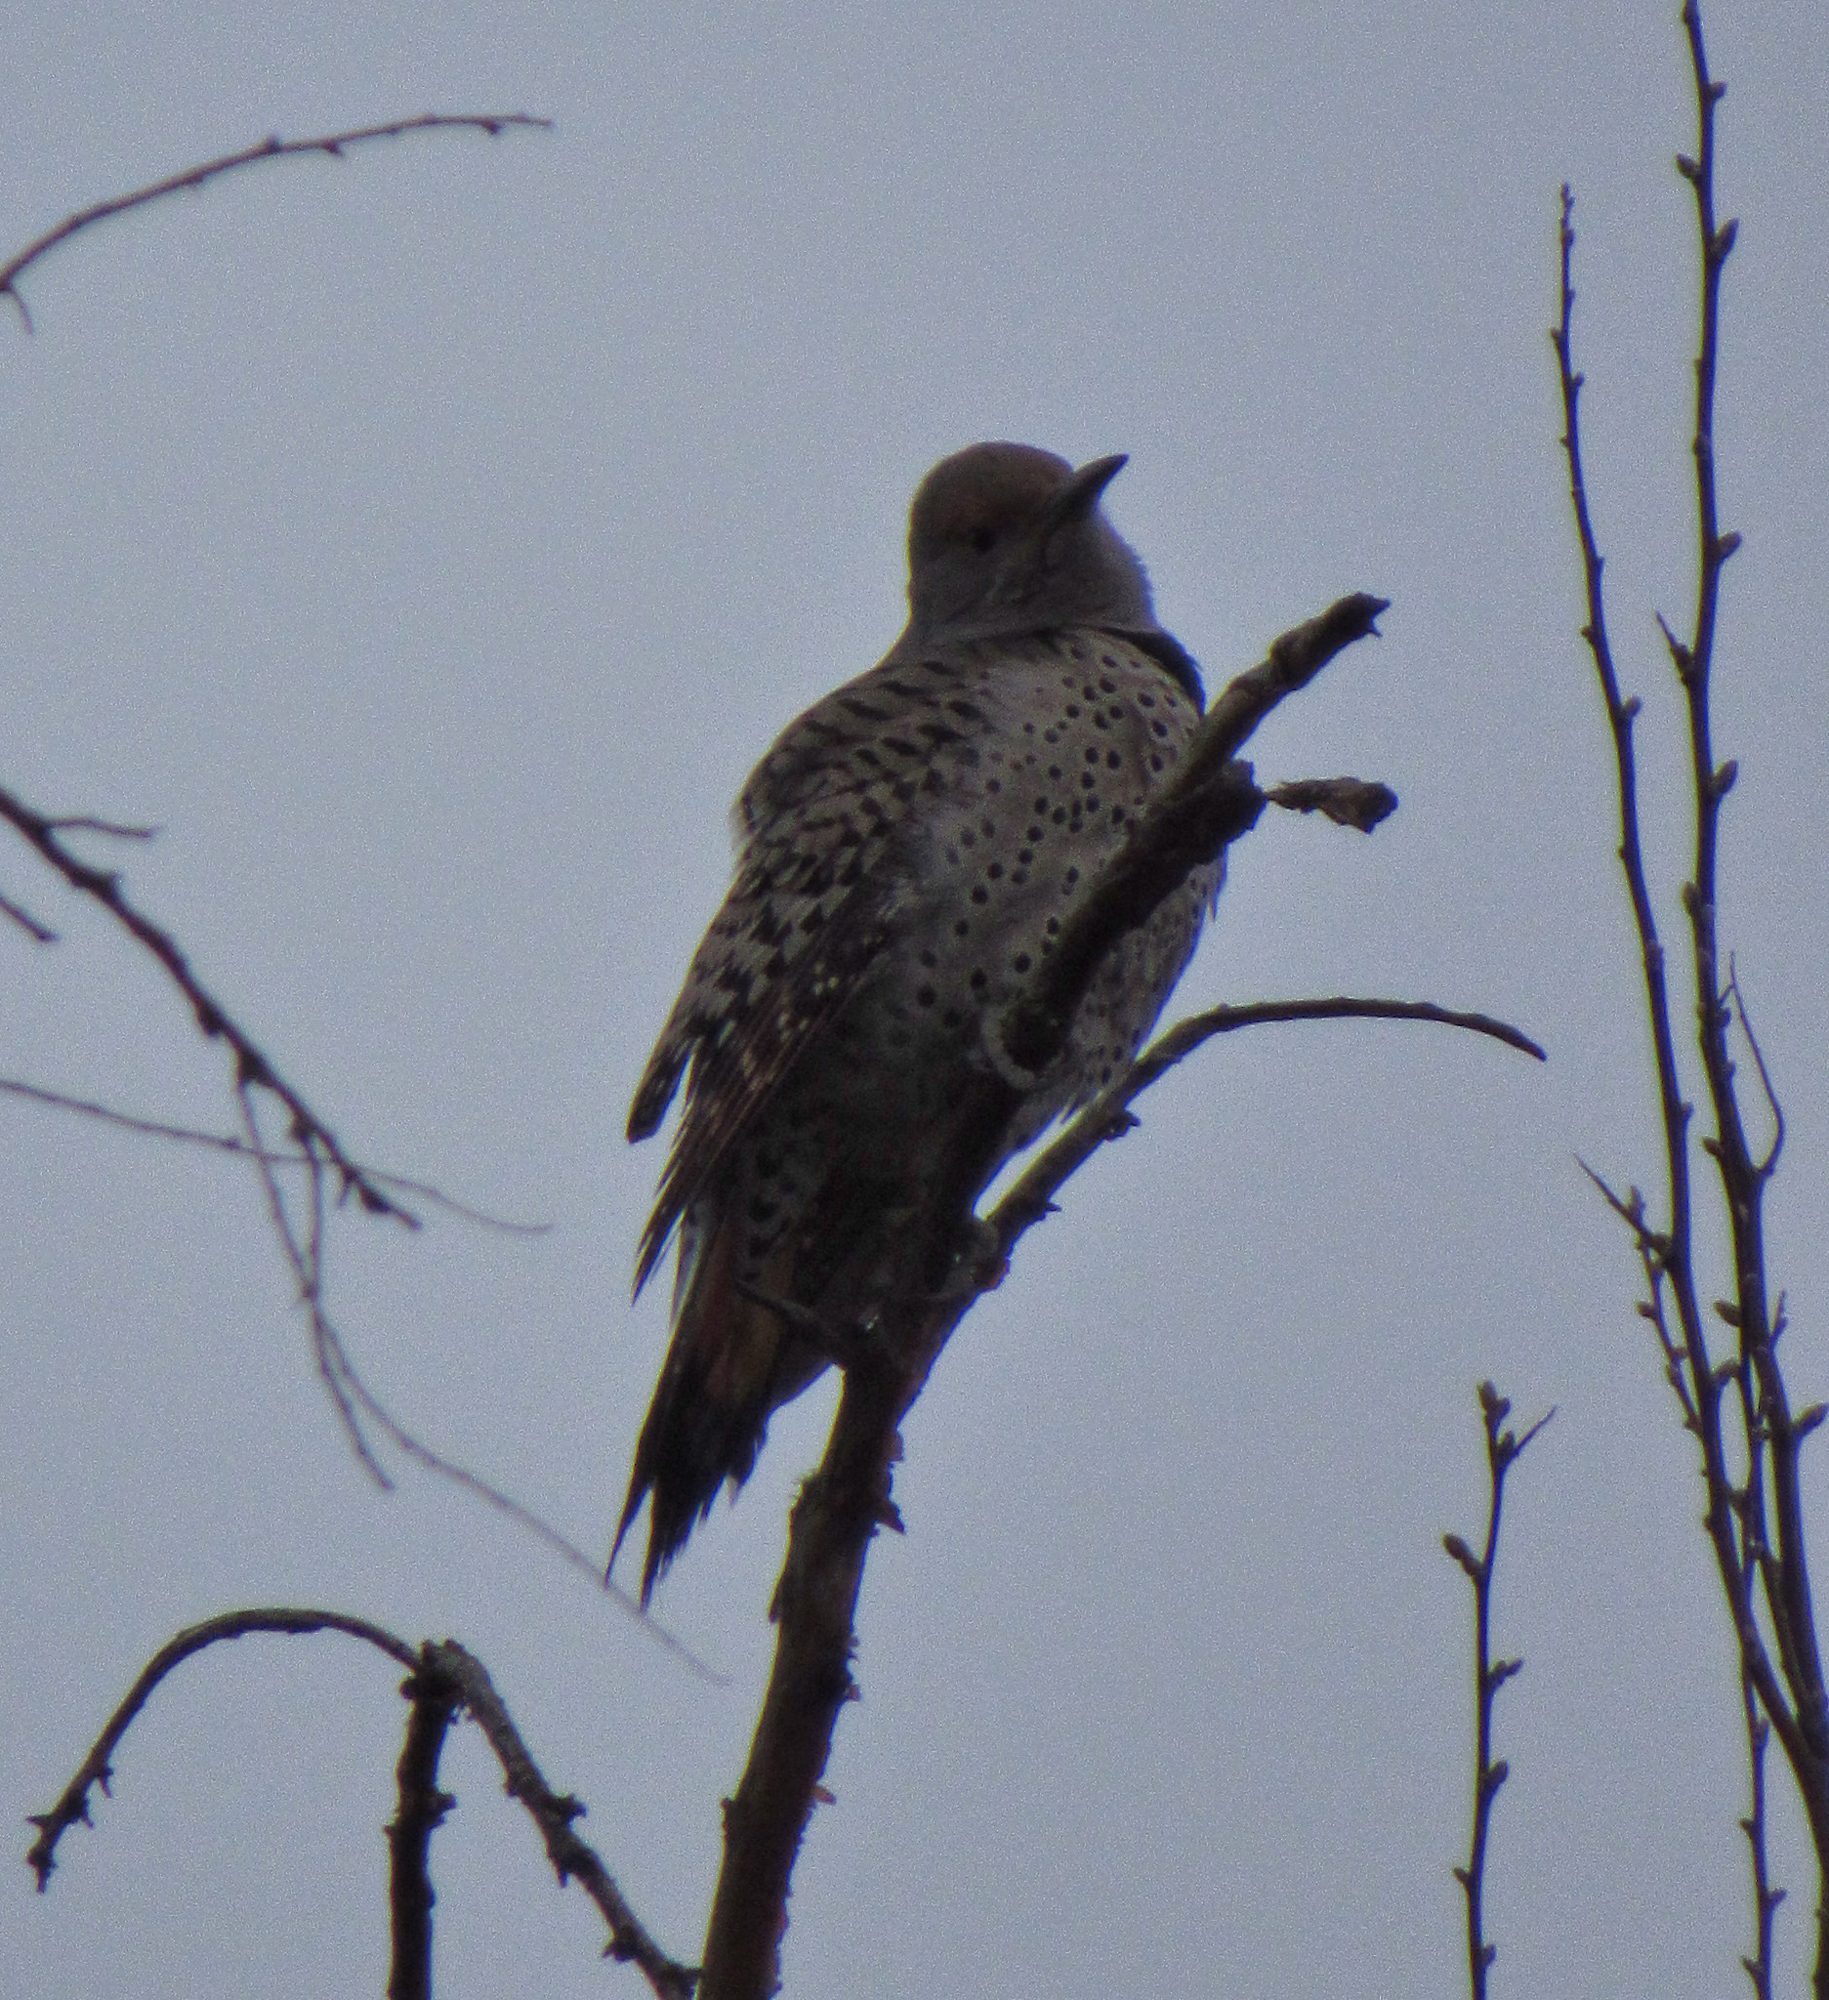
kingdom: Animalia
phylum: Chordata
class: Aves
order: Piciformes
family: Picidae
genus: Colaptes
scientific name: Colaptes auratus
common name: Northern flicker
